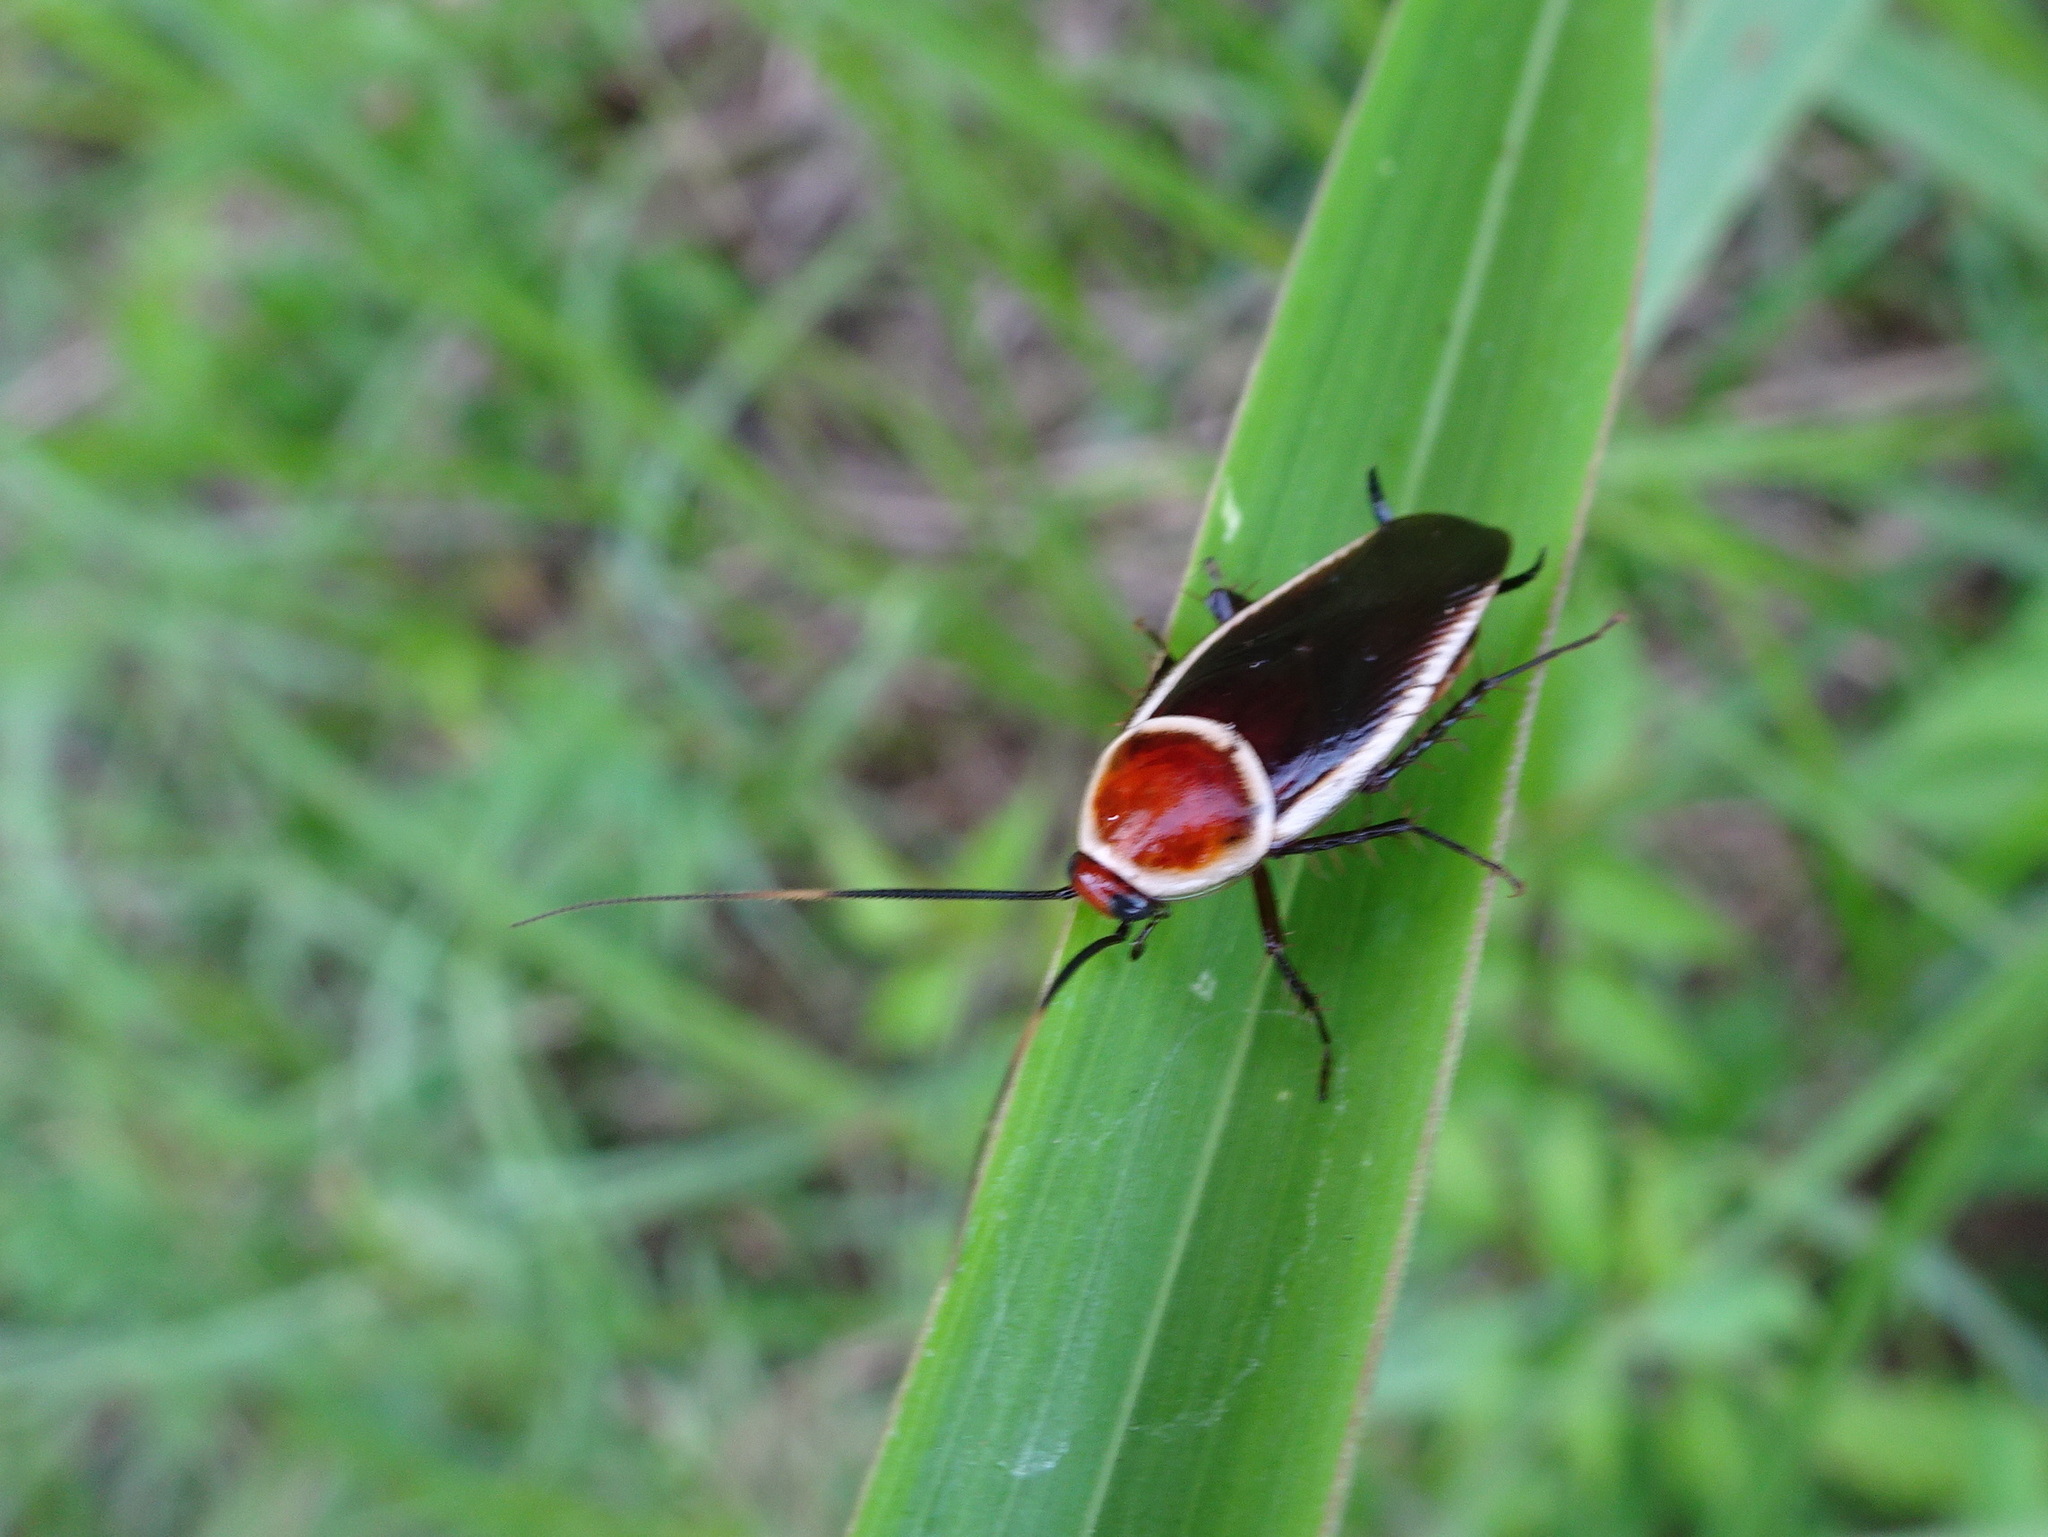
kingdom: Animalia
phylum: Arthropoda
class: Insecta
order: Blattodea
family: Ectobiidae
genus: Pseudomops
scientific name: Pseudomops septentrionalis
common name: Pale-bordered field cockroach
